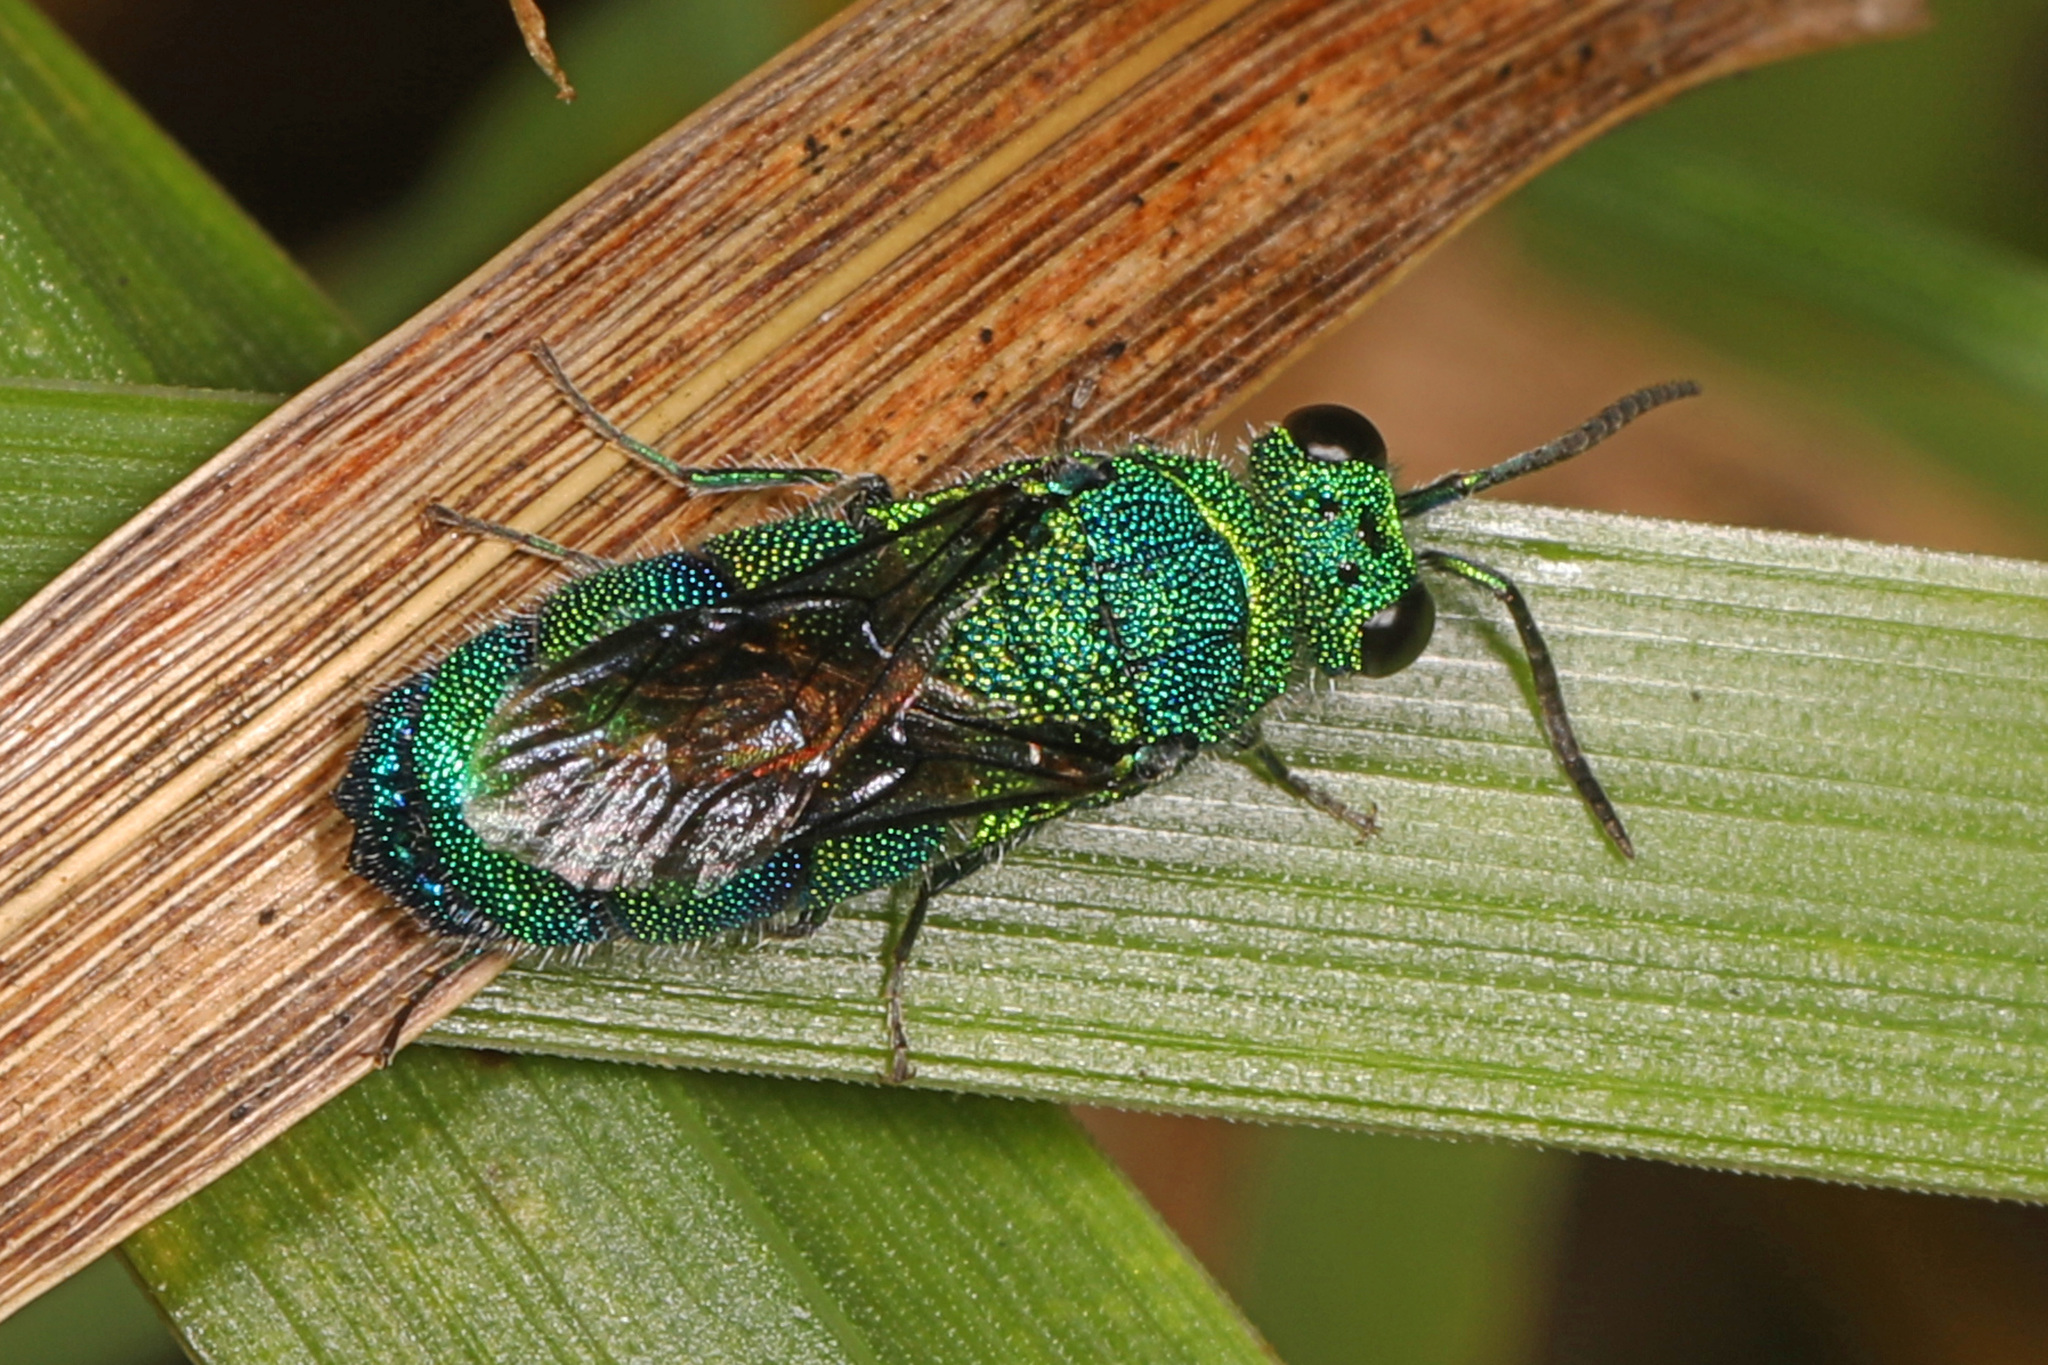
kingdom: Animalia
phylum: Arthropoda
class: Insecta
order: Hymenoptera
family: Chrysididae
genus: Chrysis
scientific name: Chrysis conica
